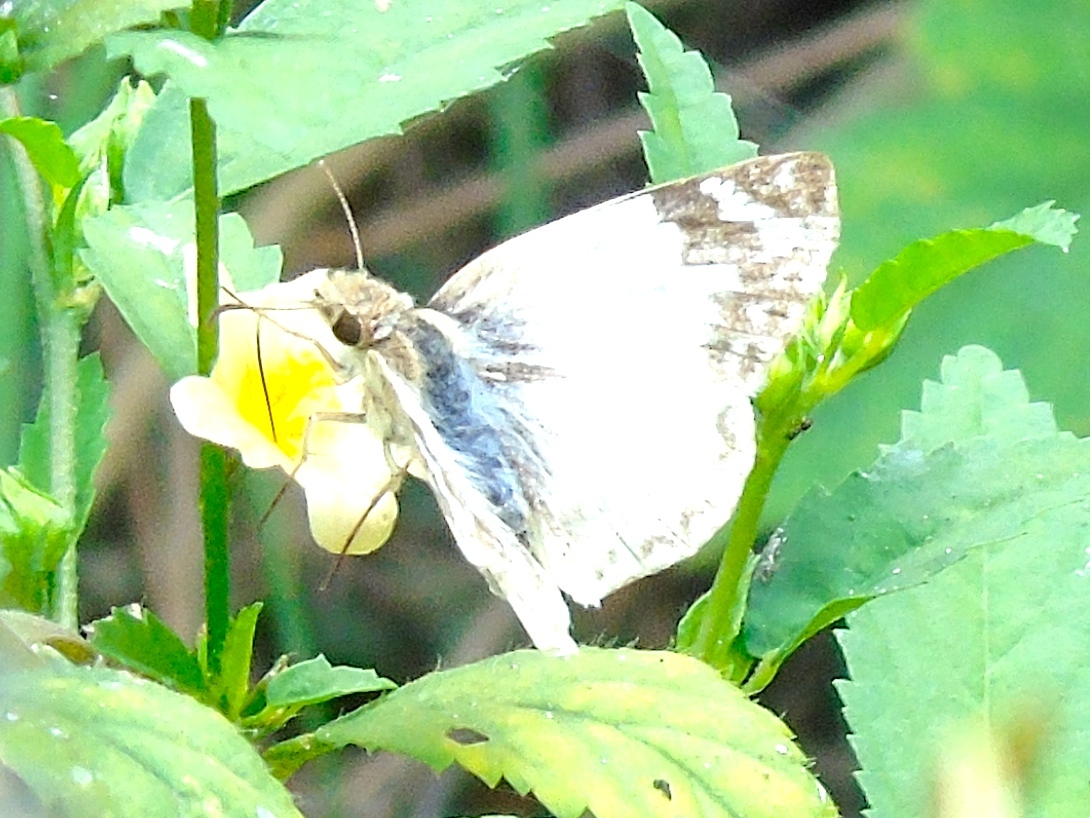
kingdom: Animalia
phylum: Arthropoda
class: Insecta
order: Lepidoptera
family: Hesperiidae
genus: Heliopetes
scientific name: Heliopetes laviana
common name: Laviana white-skipper
